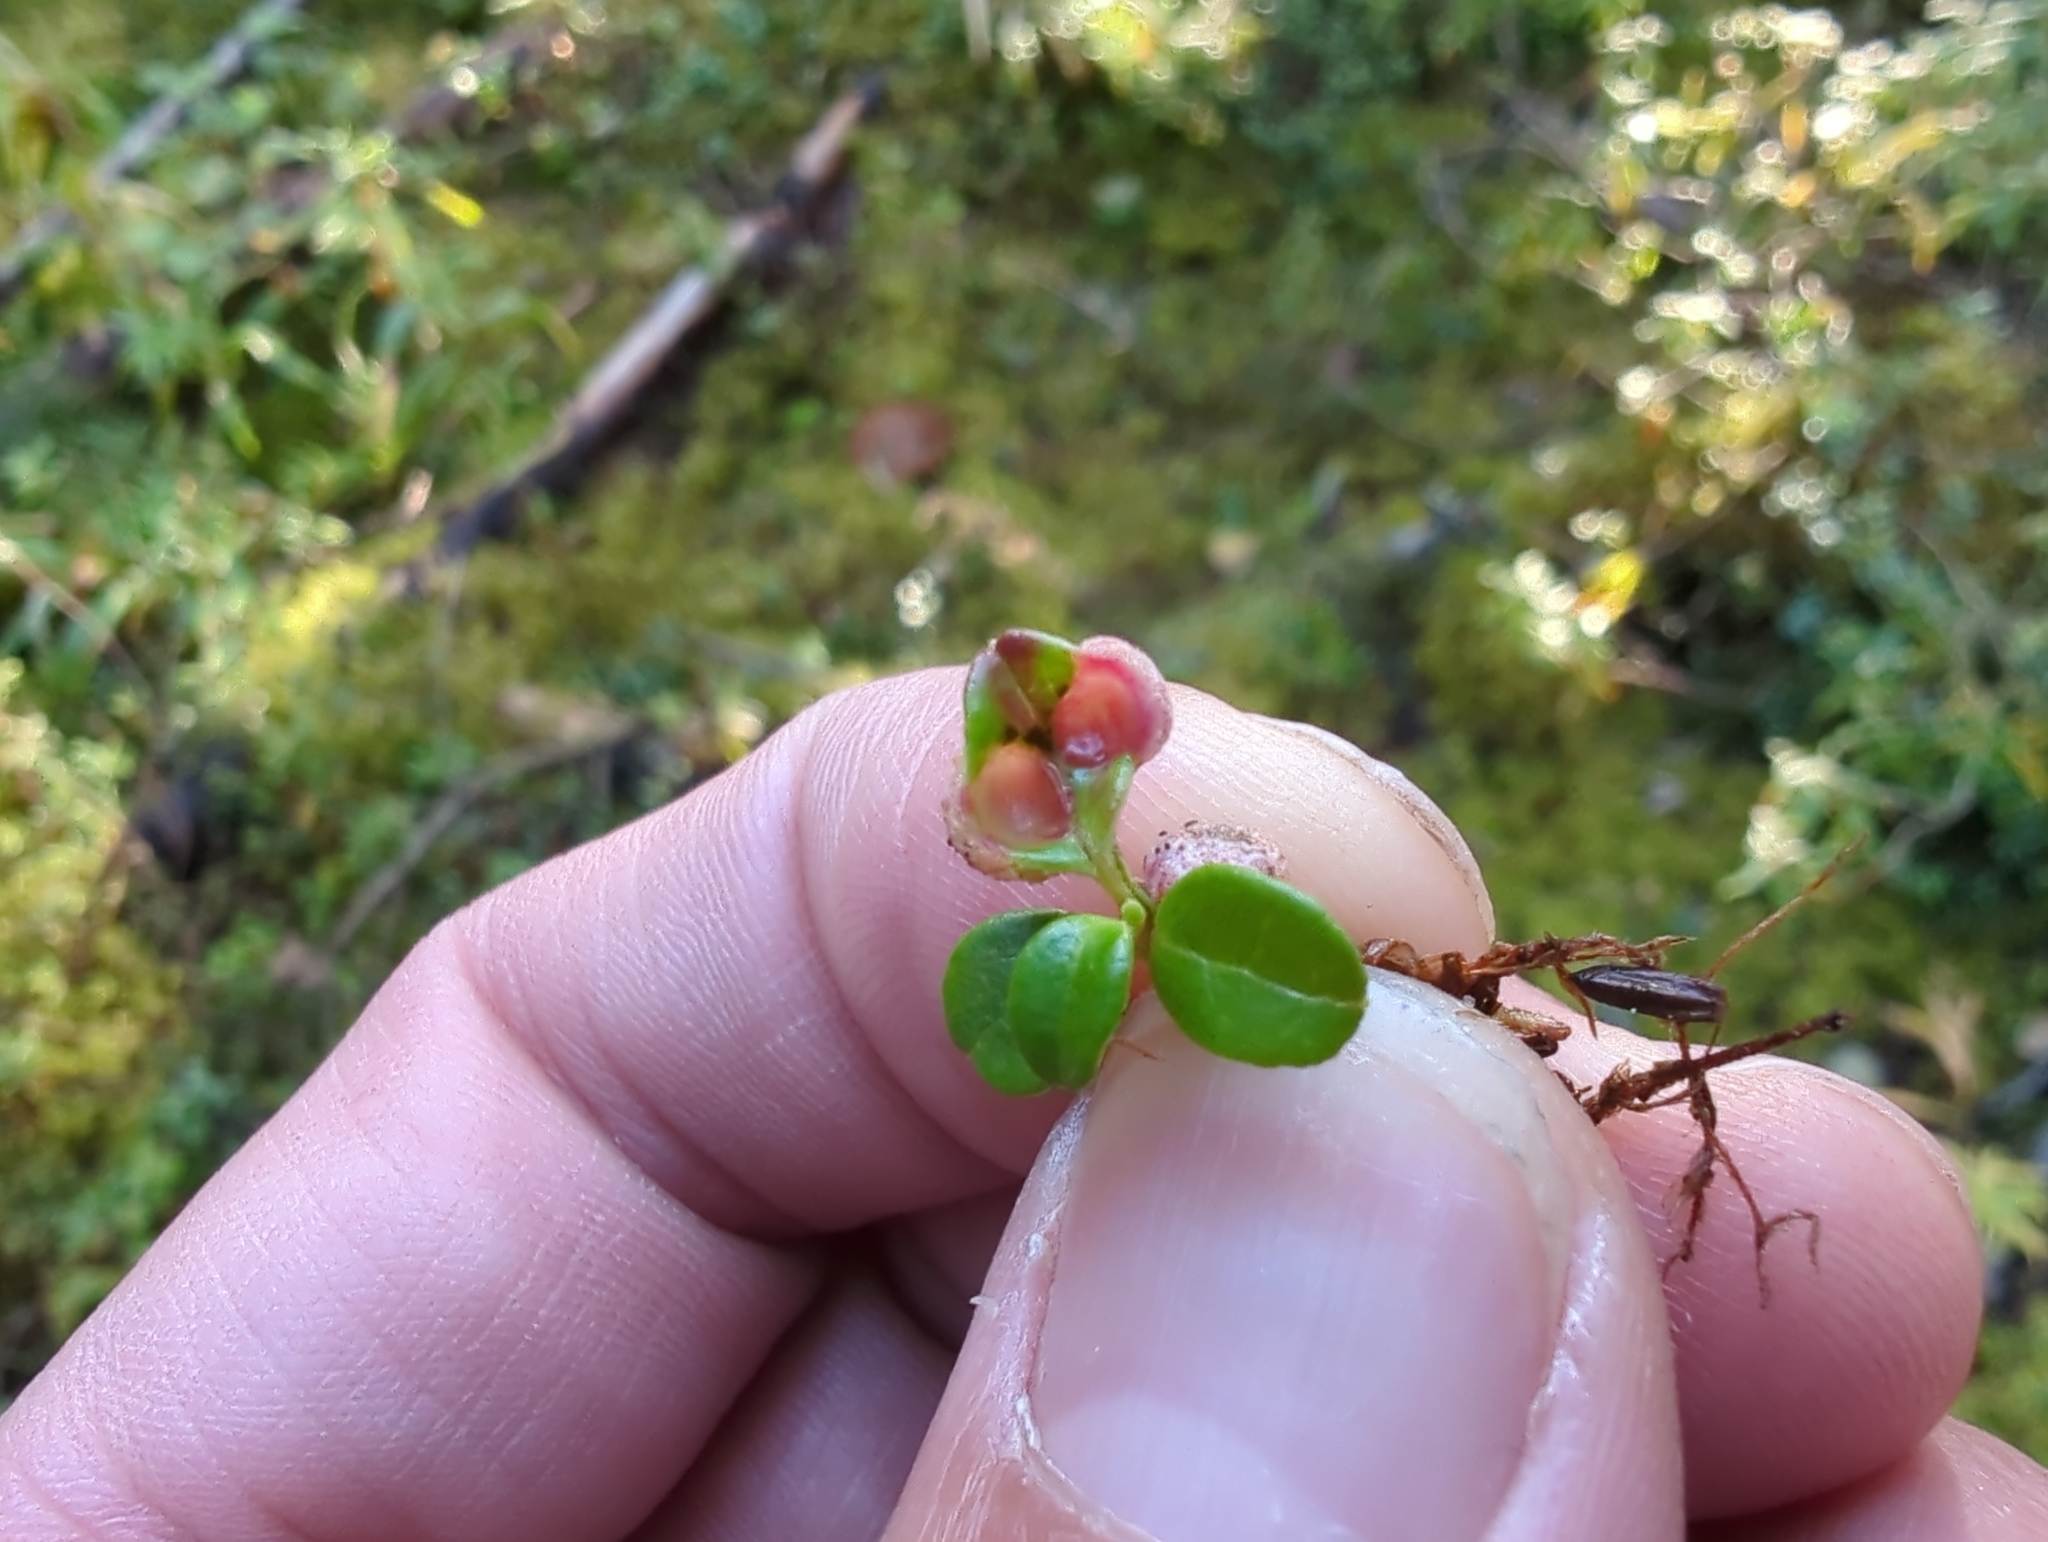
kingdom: Fungi
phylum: Basidiomycota
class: Exobasidiomycetes
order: Exobasidiales
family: Exobasidiaceae
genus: Exobasidium
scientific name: Exobasidium vaccinii
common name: Cowberry redleaf
